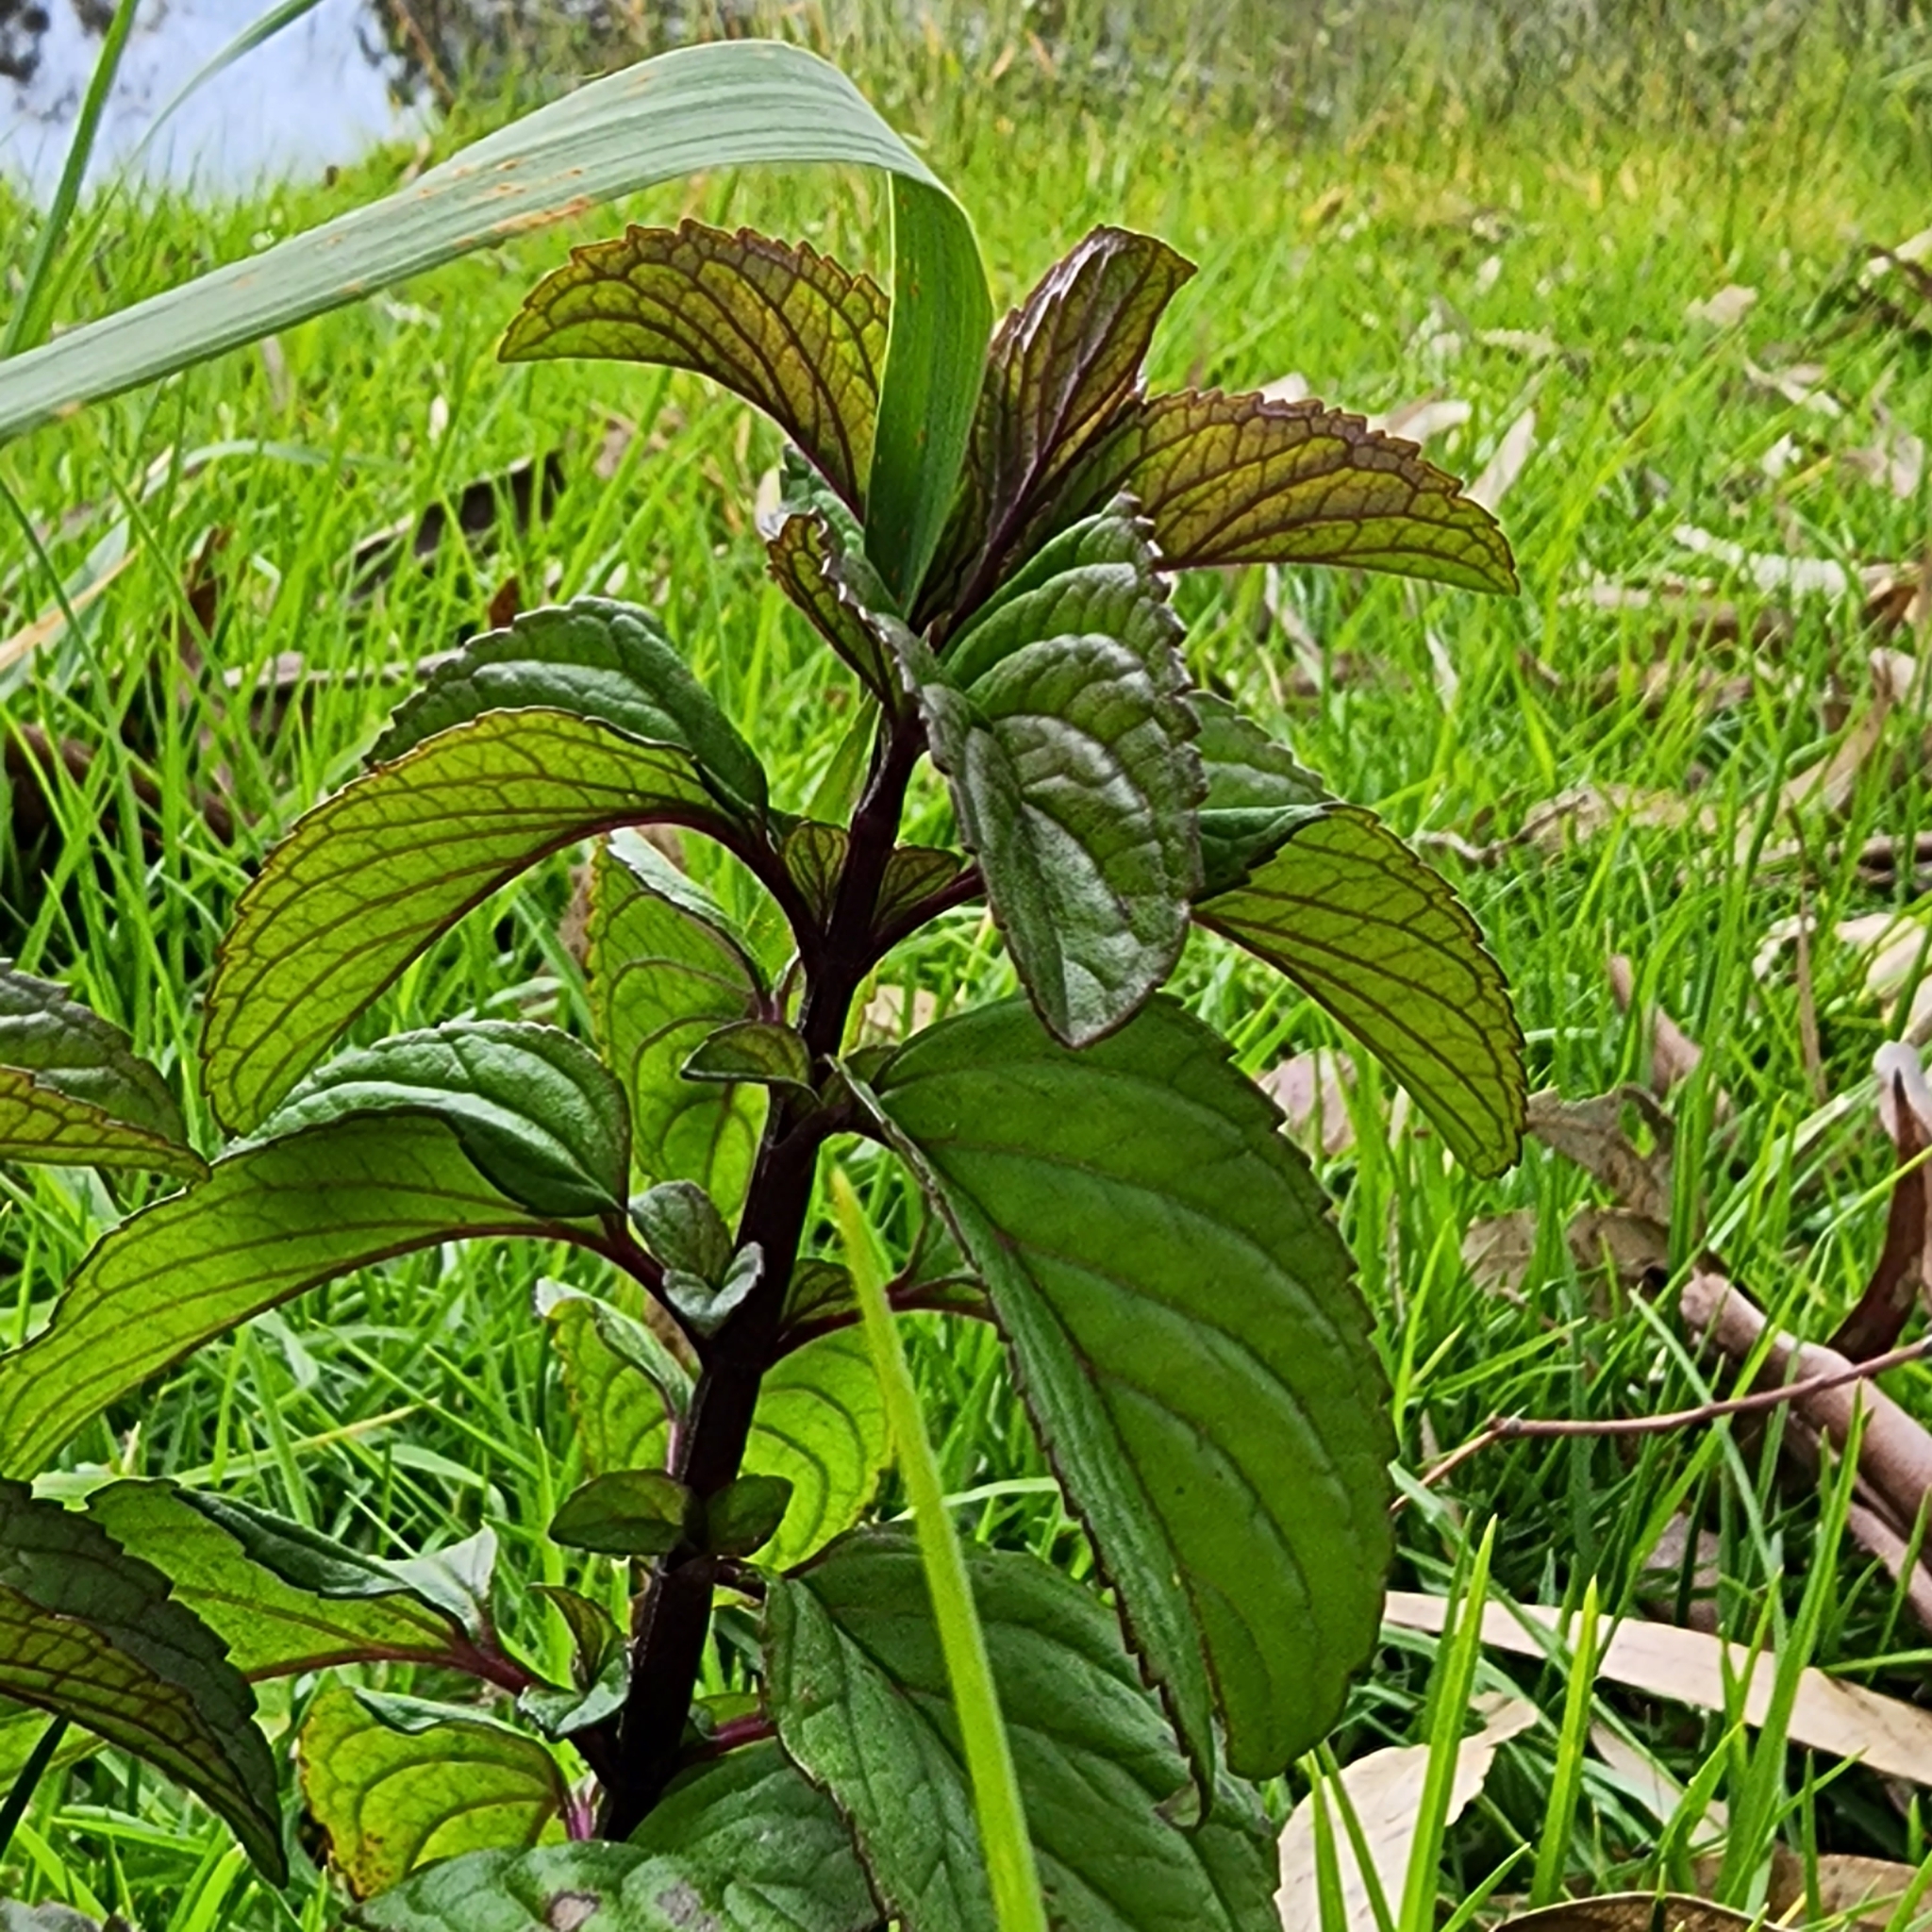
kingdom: Plantae
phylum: Tracheophyta
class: Magnoliopsida
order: Lamiales
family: Lamiaceae
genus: Mentha
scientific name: Mentha aquatica
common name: Water mint
